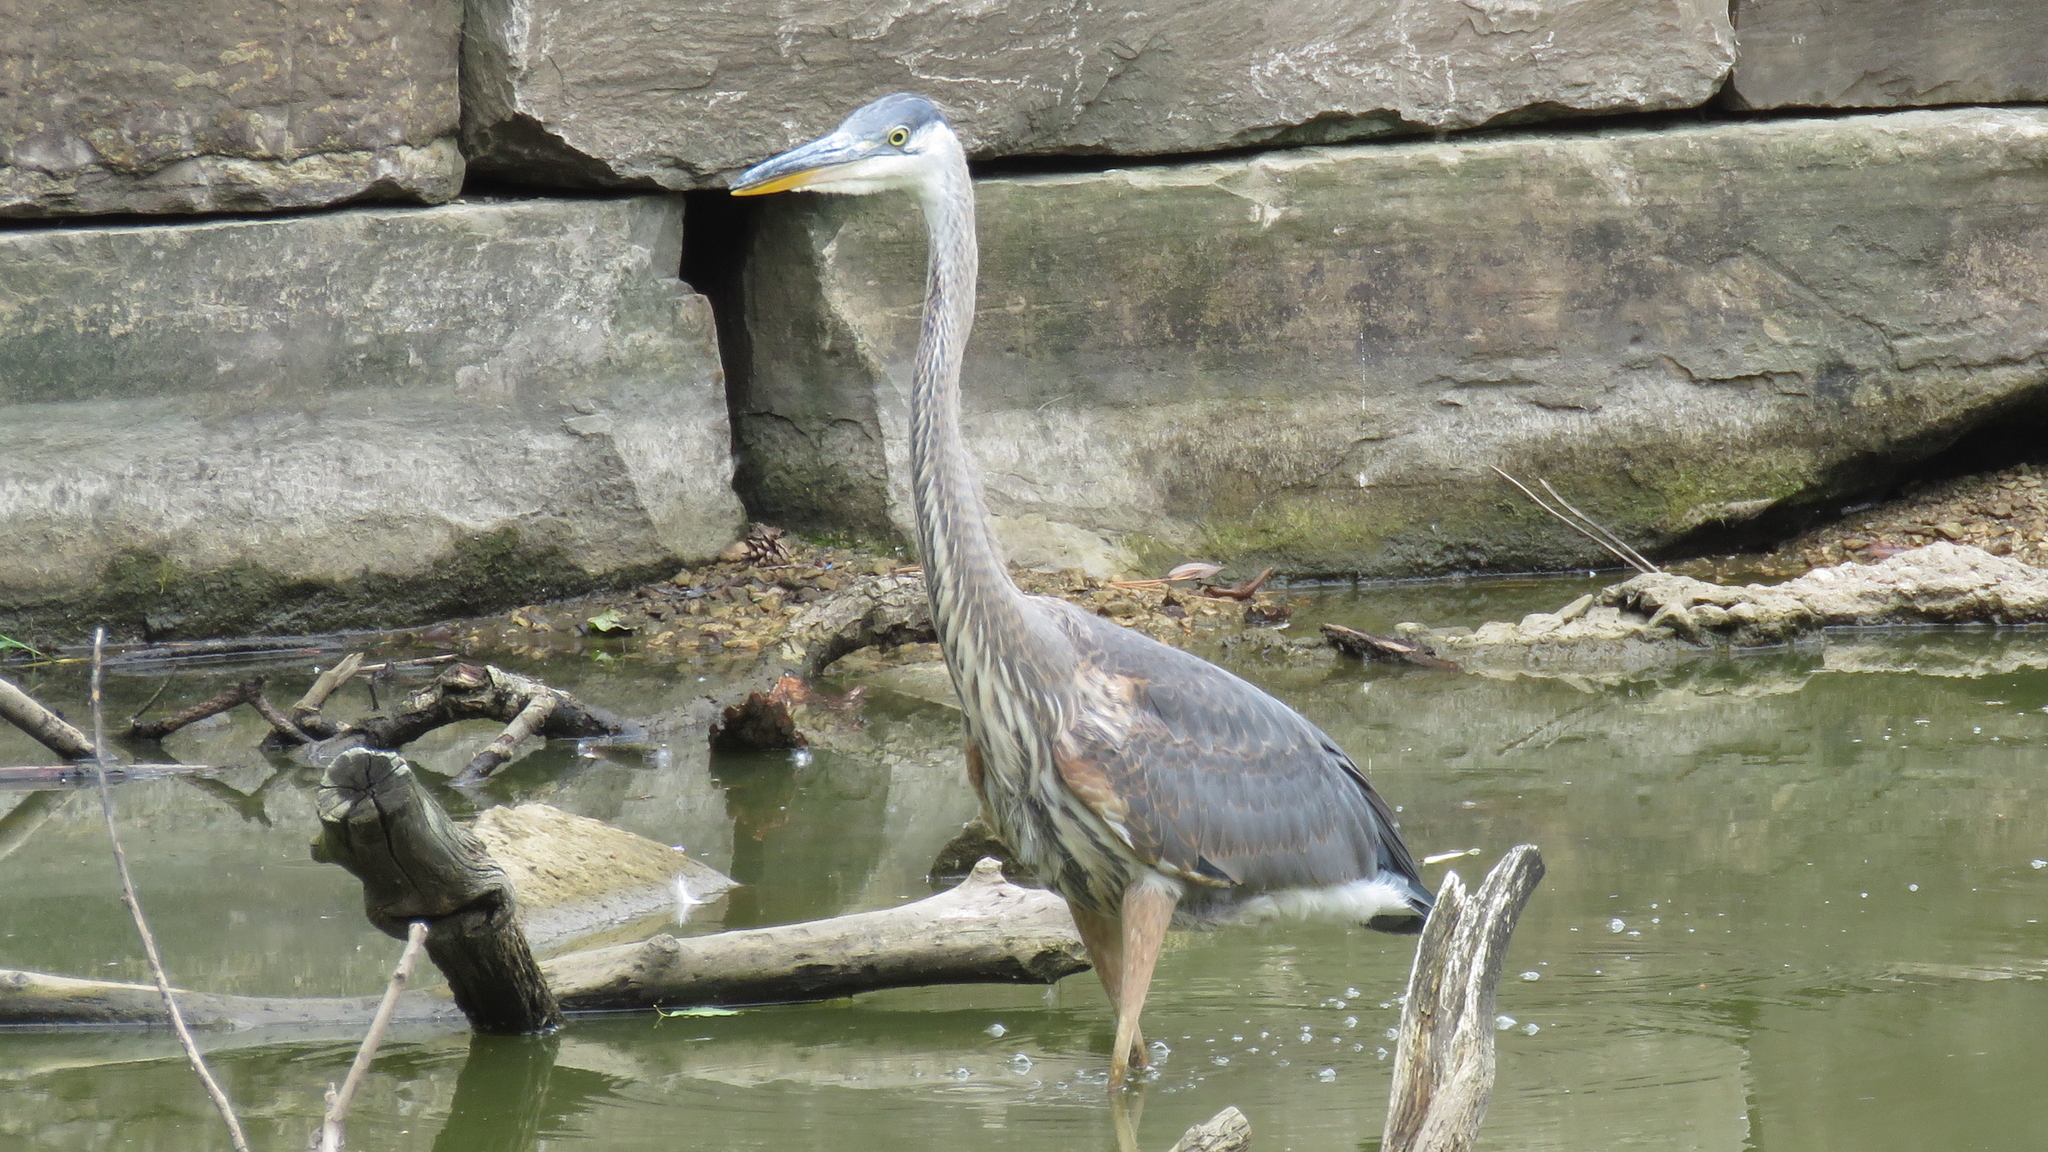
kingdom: Animalia
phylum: Chordata
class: Aves
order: Pelecaniformes
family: Ardeidae
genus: Ardea
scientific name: Ardea herodias
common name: Great blue heron
